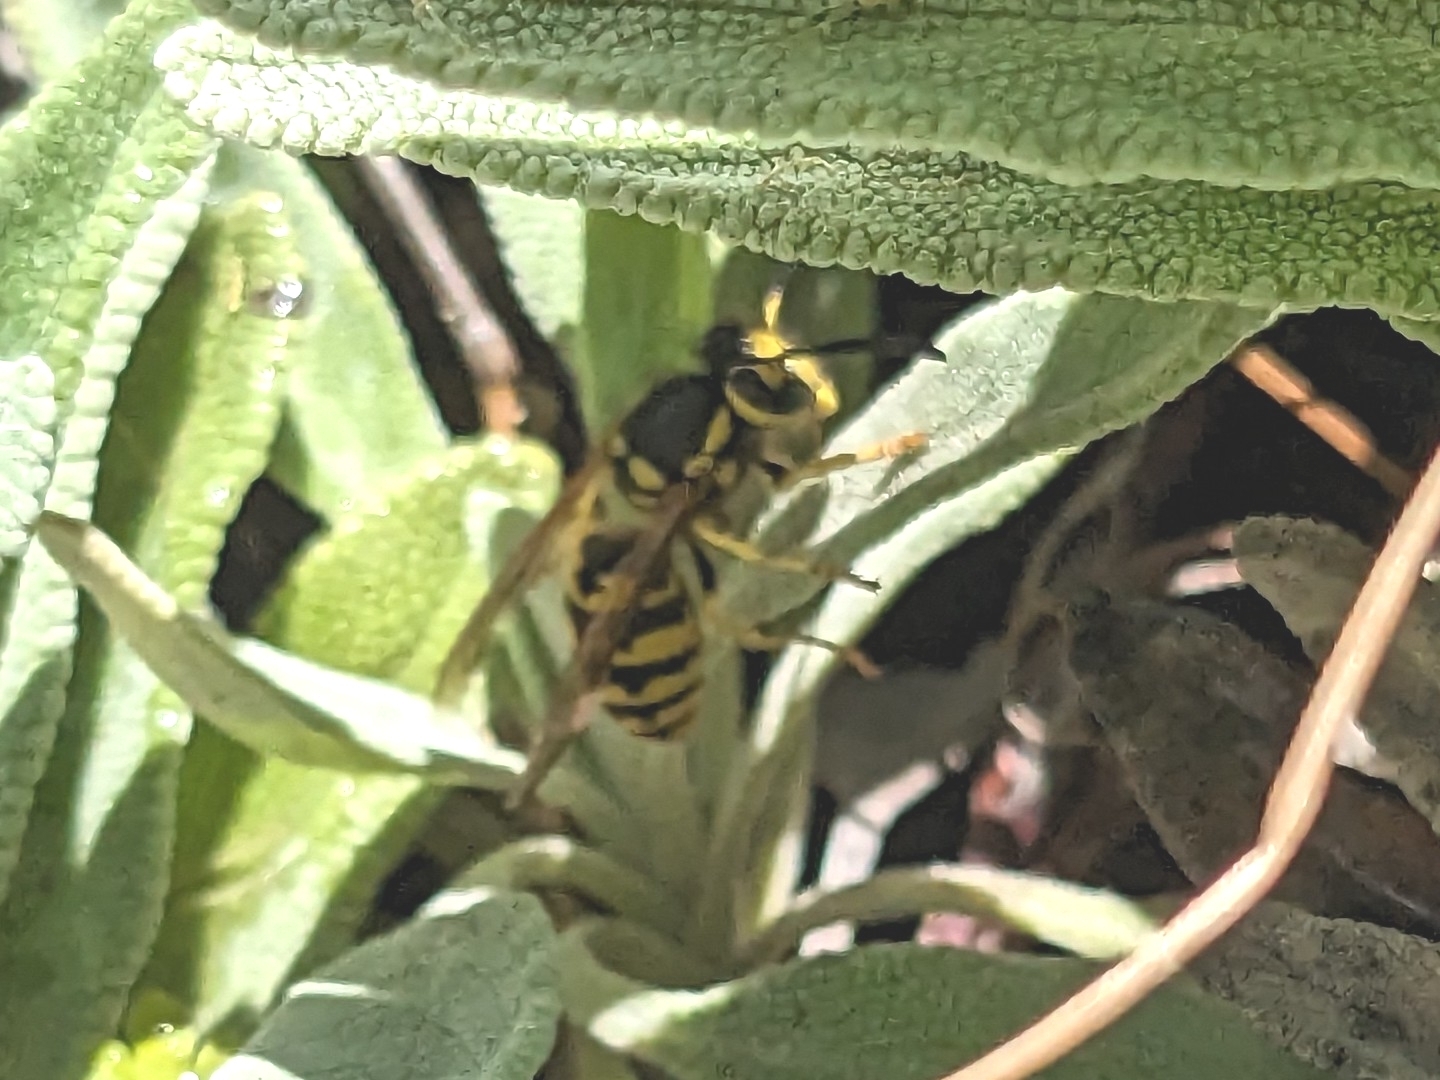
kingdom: Animalia
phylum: Arthropoda
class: Insecta
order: Hymenoptera
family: Vespidae
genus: Vespula
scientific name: Vespula pensylvanica
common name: Western yellowjacket
